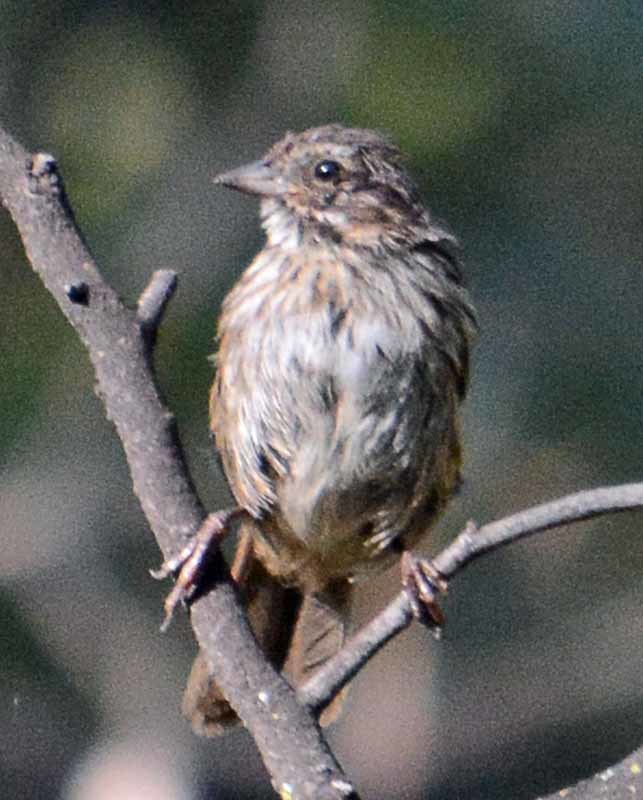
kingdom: Animalia
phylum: Chordata
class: Aves
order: Passeriformes
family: Passerellidae
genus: Melospiza
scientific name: Melospiza melodia
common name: Song sparrow
